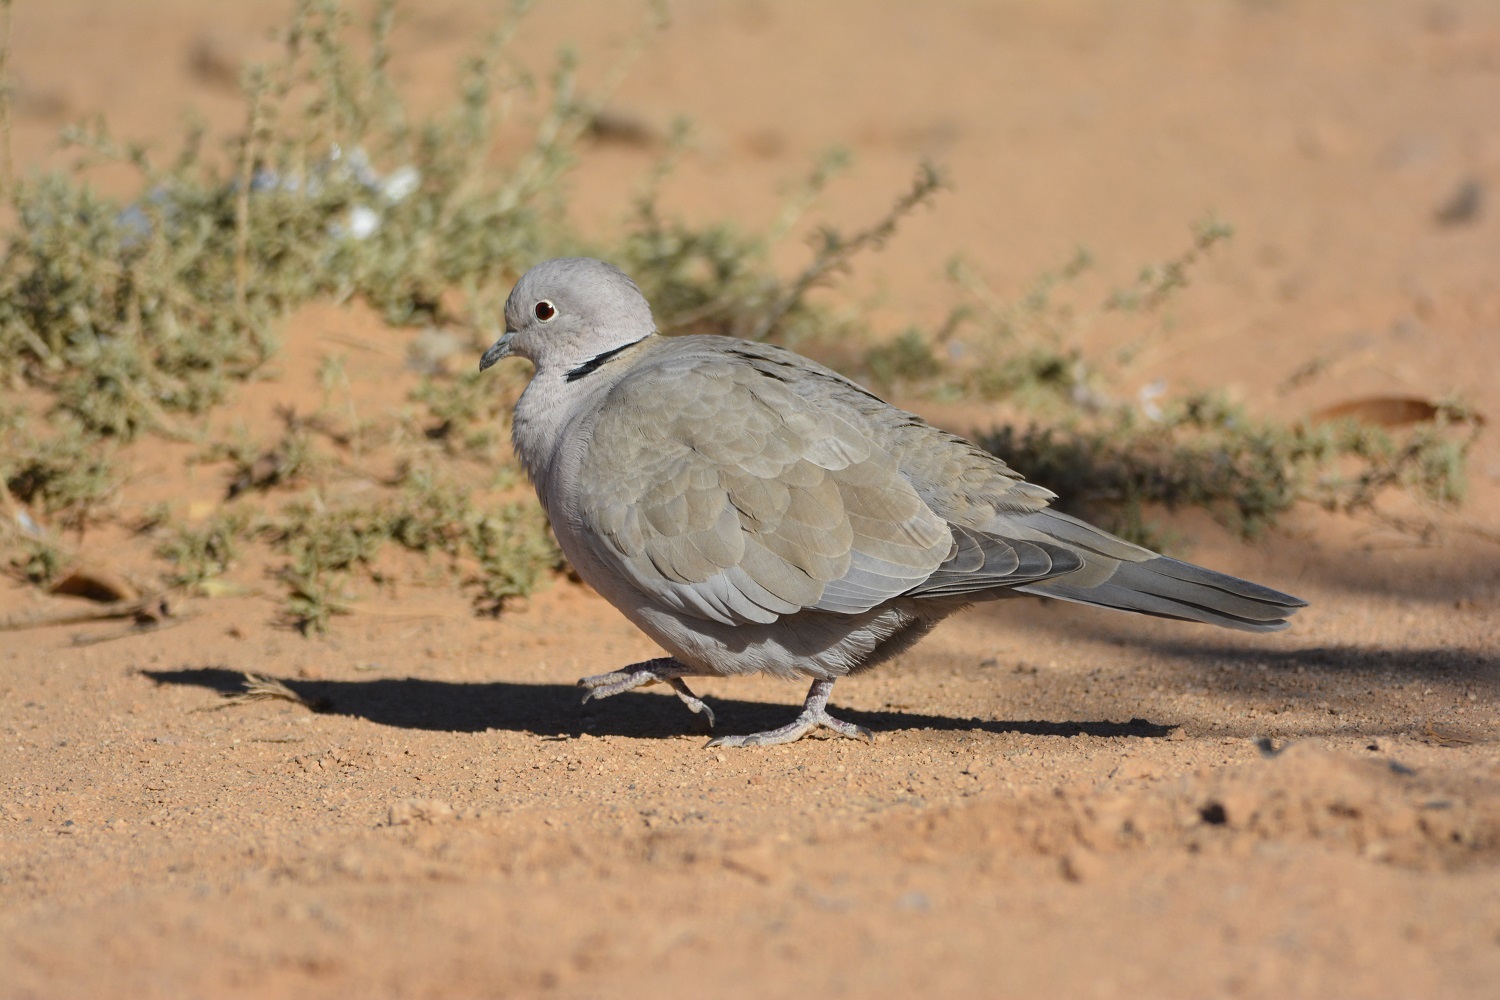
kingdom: Animalia
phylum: Chordata
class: Aves
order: Columbiformes
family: Columbidae
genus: Streptopelia
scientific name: Streptopelia decaocto
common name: Eurasian collared dove
